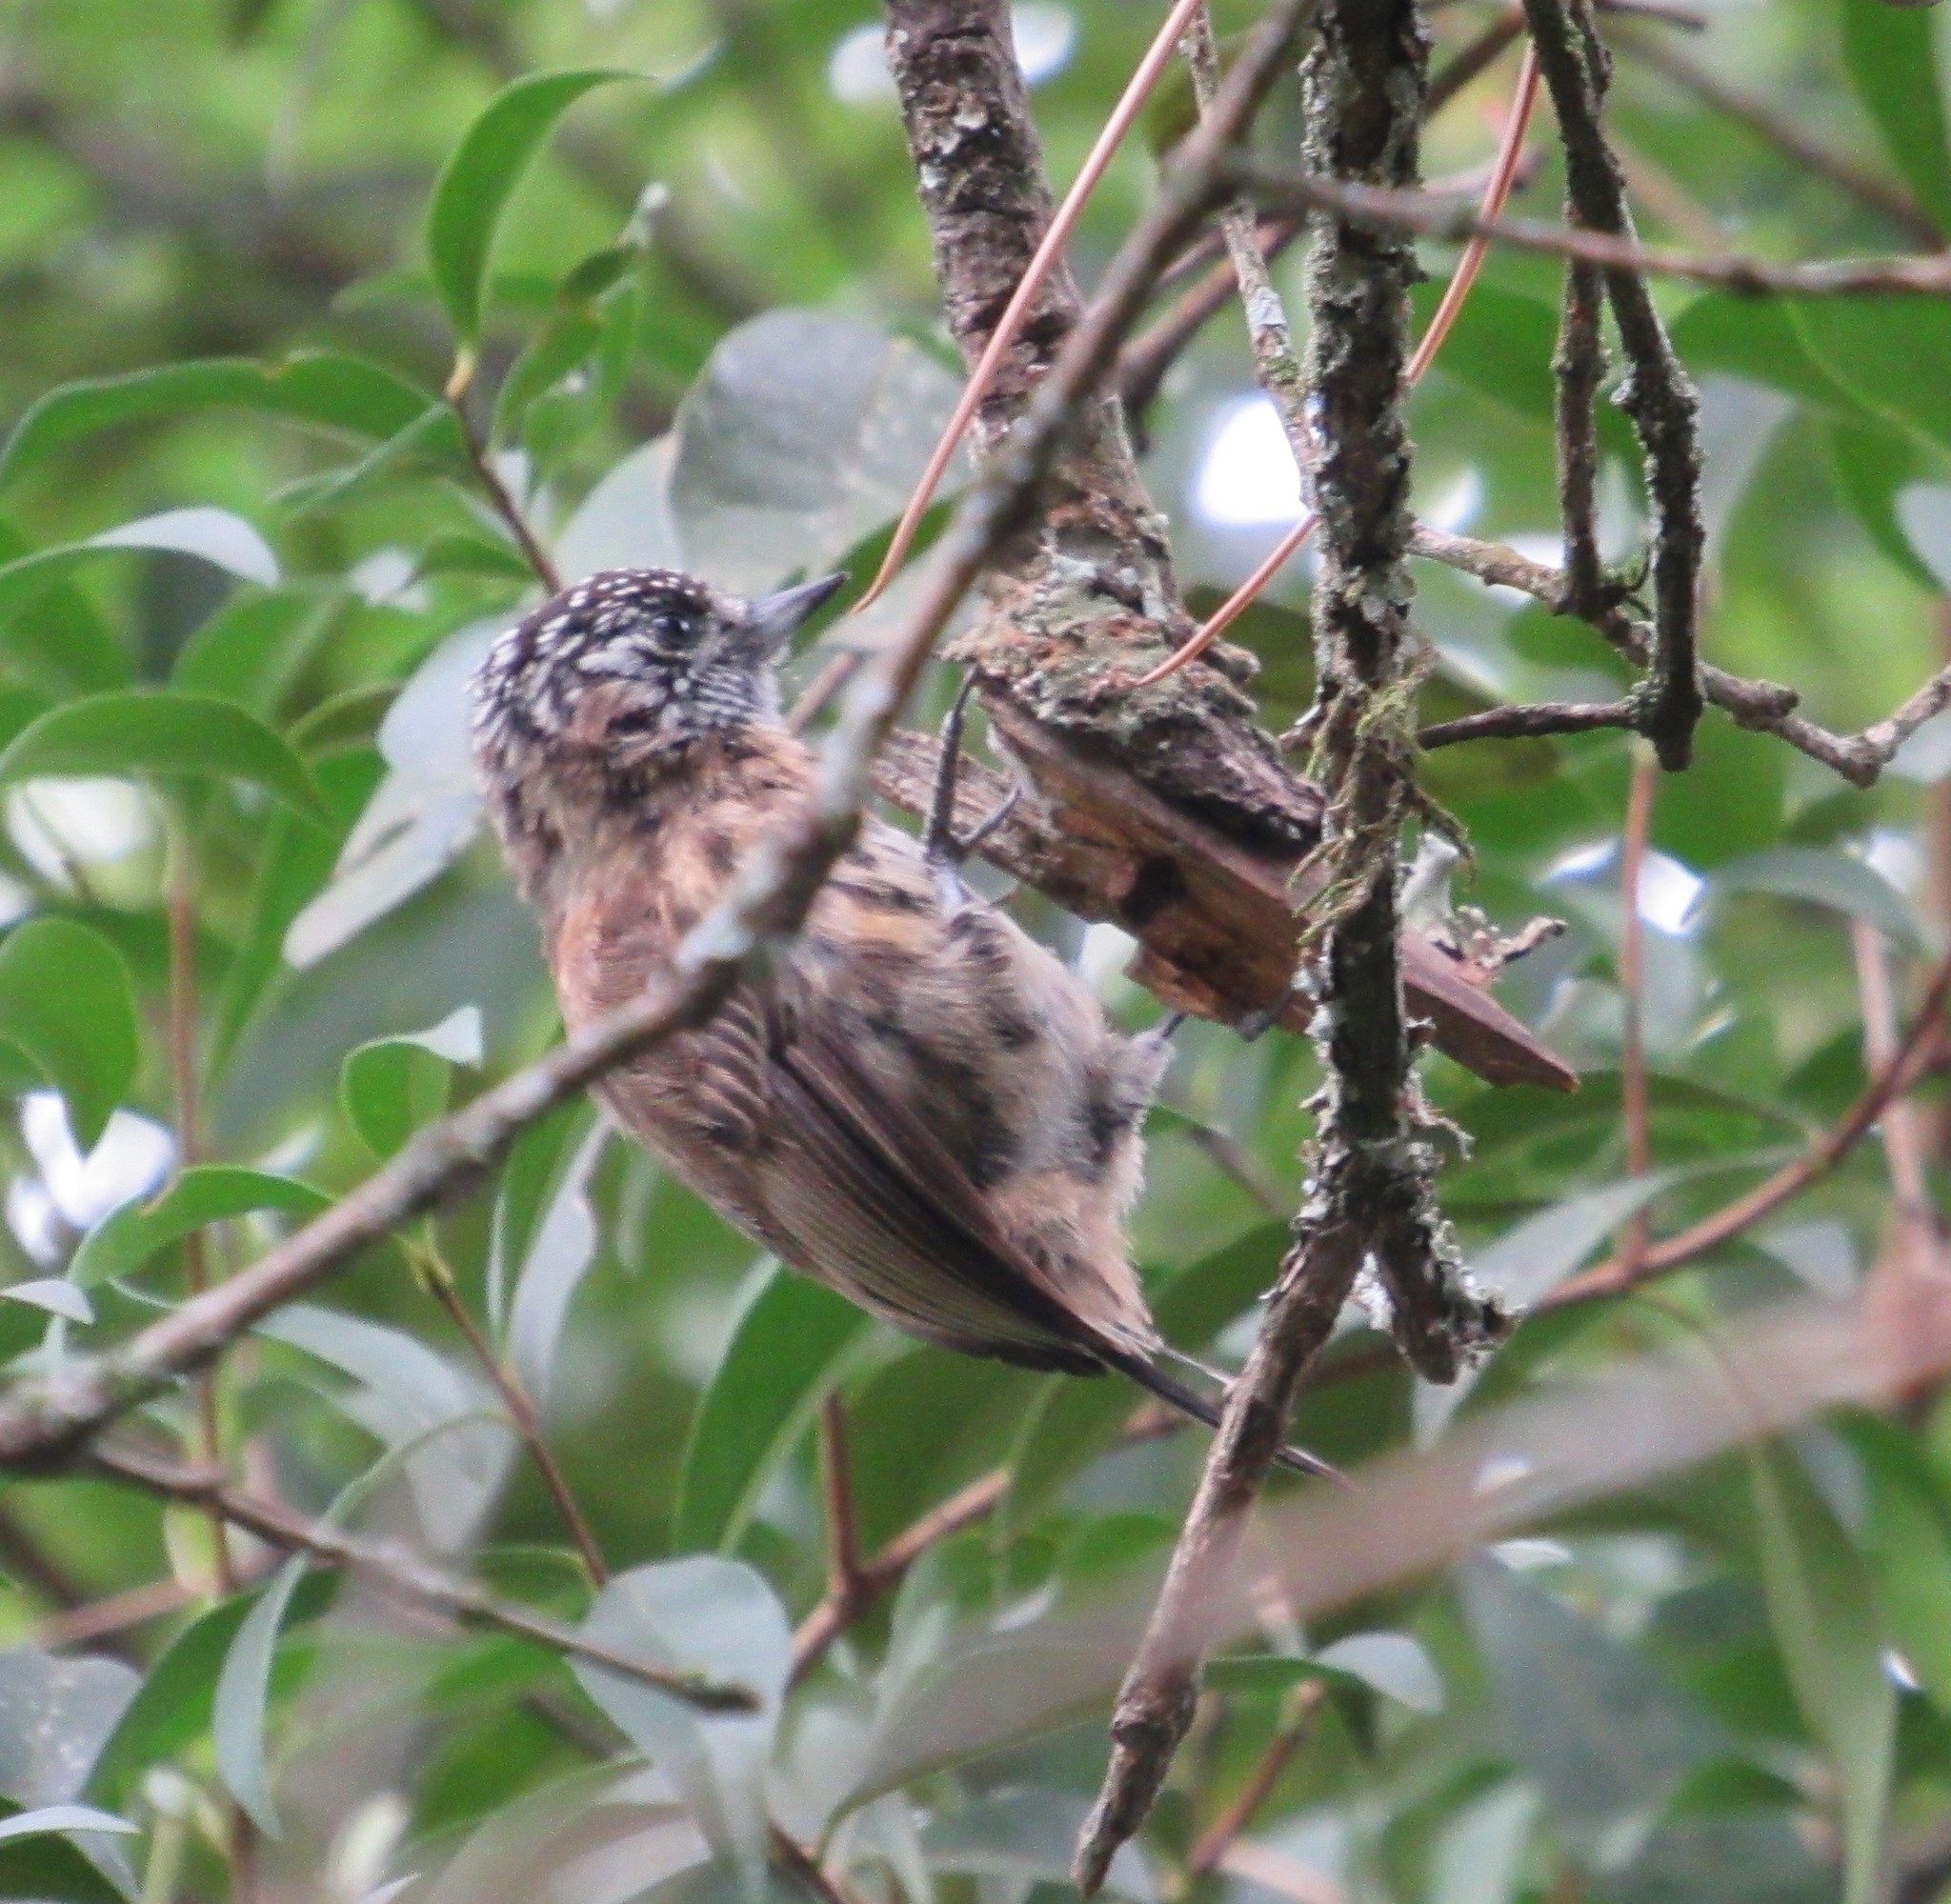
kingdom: Animalia
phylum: Chordata
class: Aves
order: Piciformes
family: Picidae
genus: Picumnus
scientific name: Picumnus nebulosus
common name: Mottled piculet
